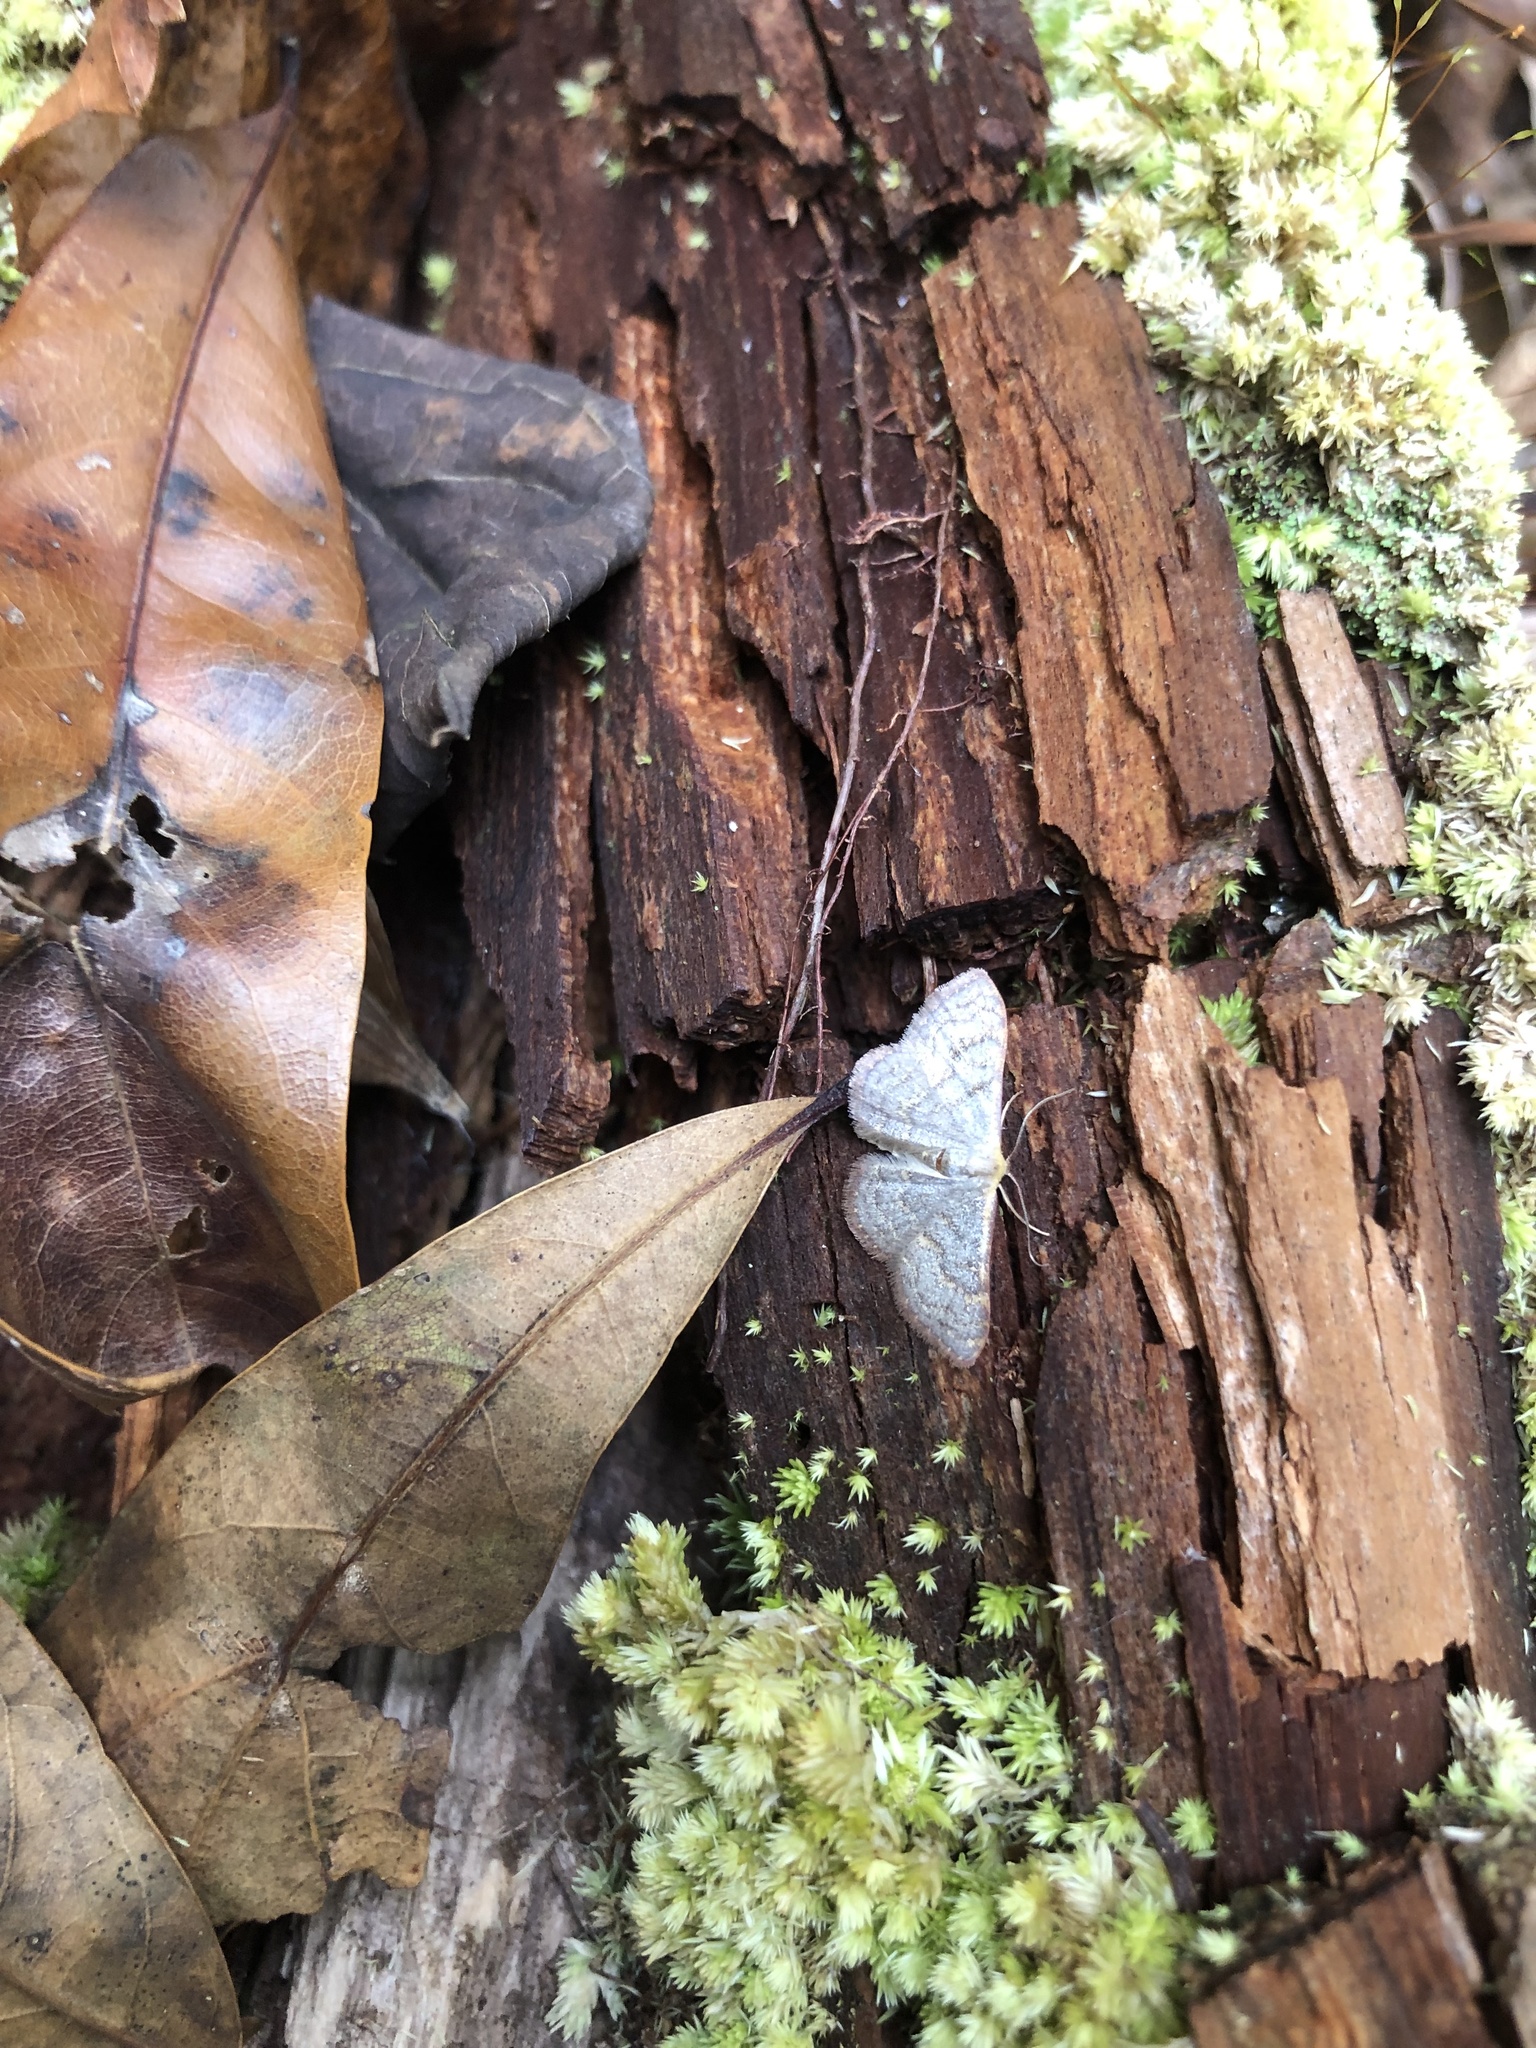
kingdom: Animalia
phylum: Arthropoda
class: Insecta
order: Lepidoptera
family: Geometridae
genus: Leptostales
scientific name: Leptostales pannaria
